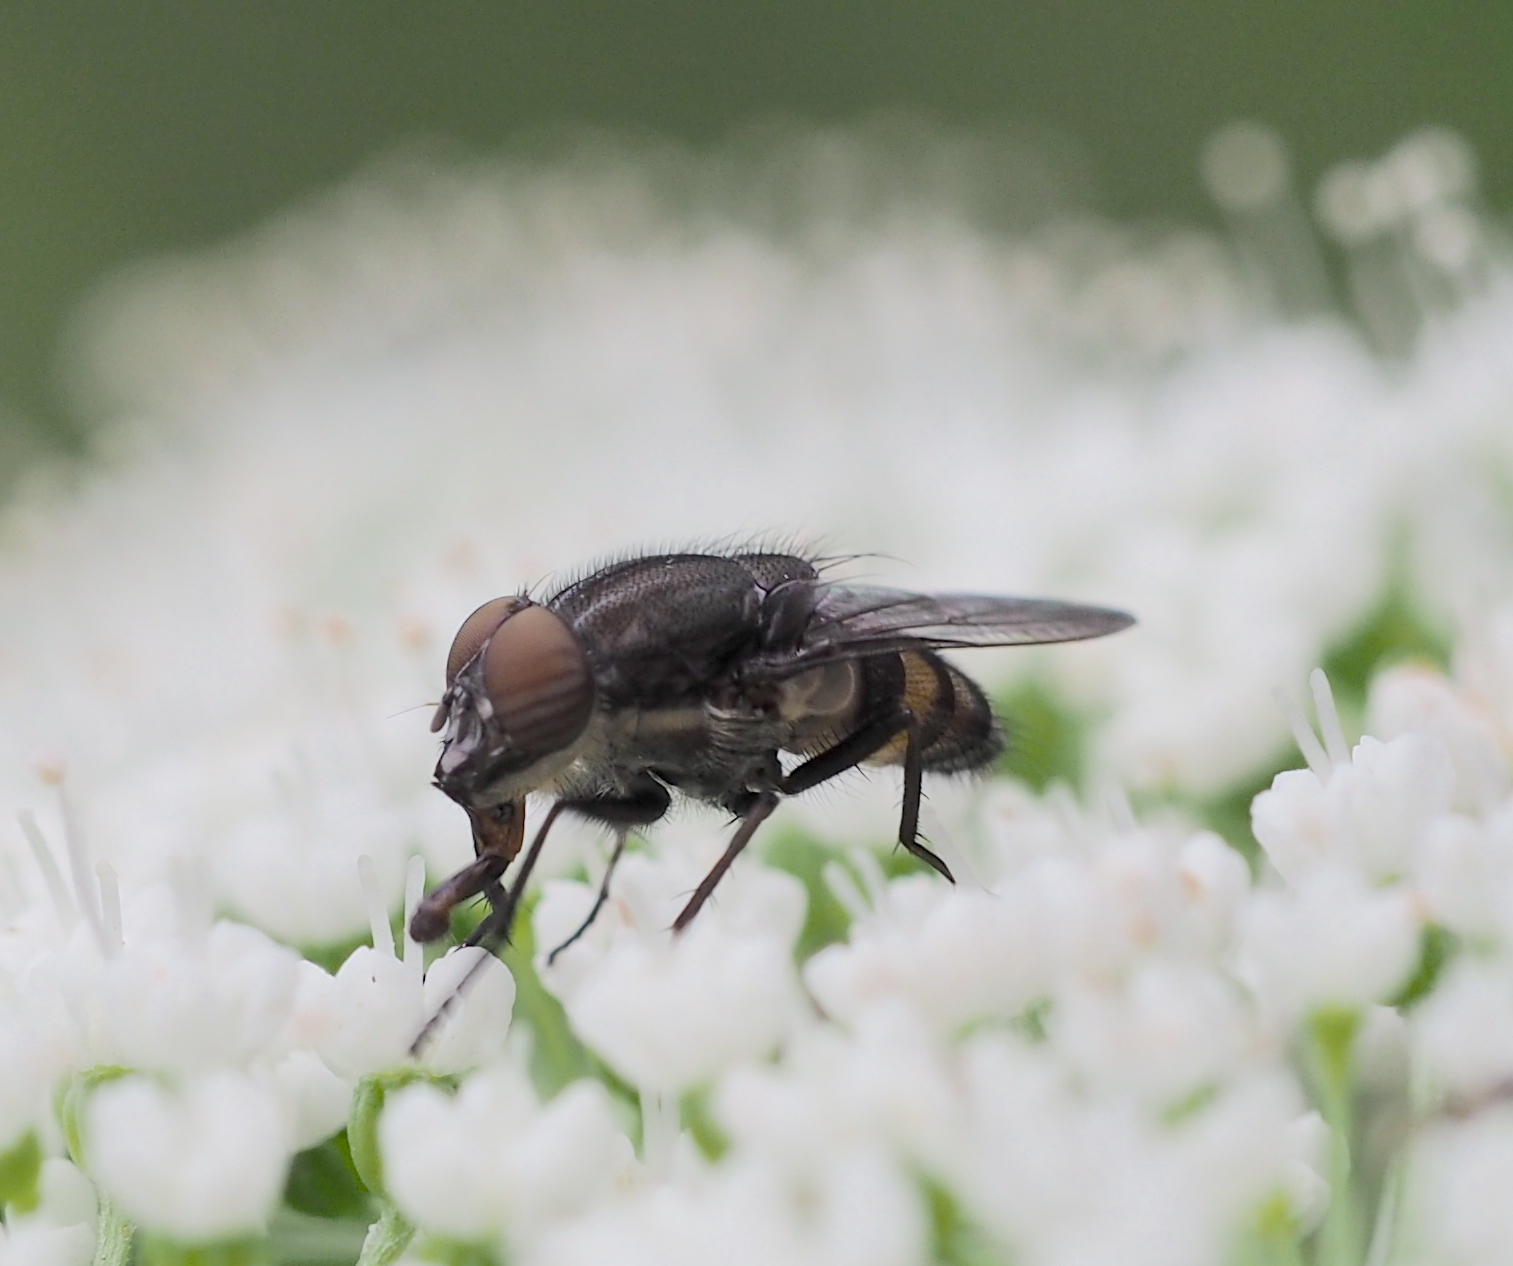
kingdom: Animalia
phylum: Arthropoda
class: Insecta
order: Diptera
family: Calliphoridae
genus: Stomorhina
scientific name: Stomorhina lunata
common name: Locust blowfly
